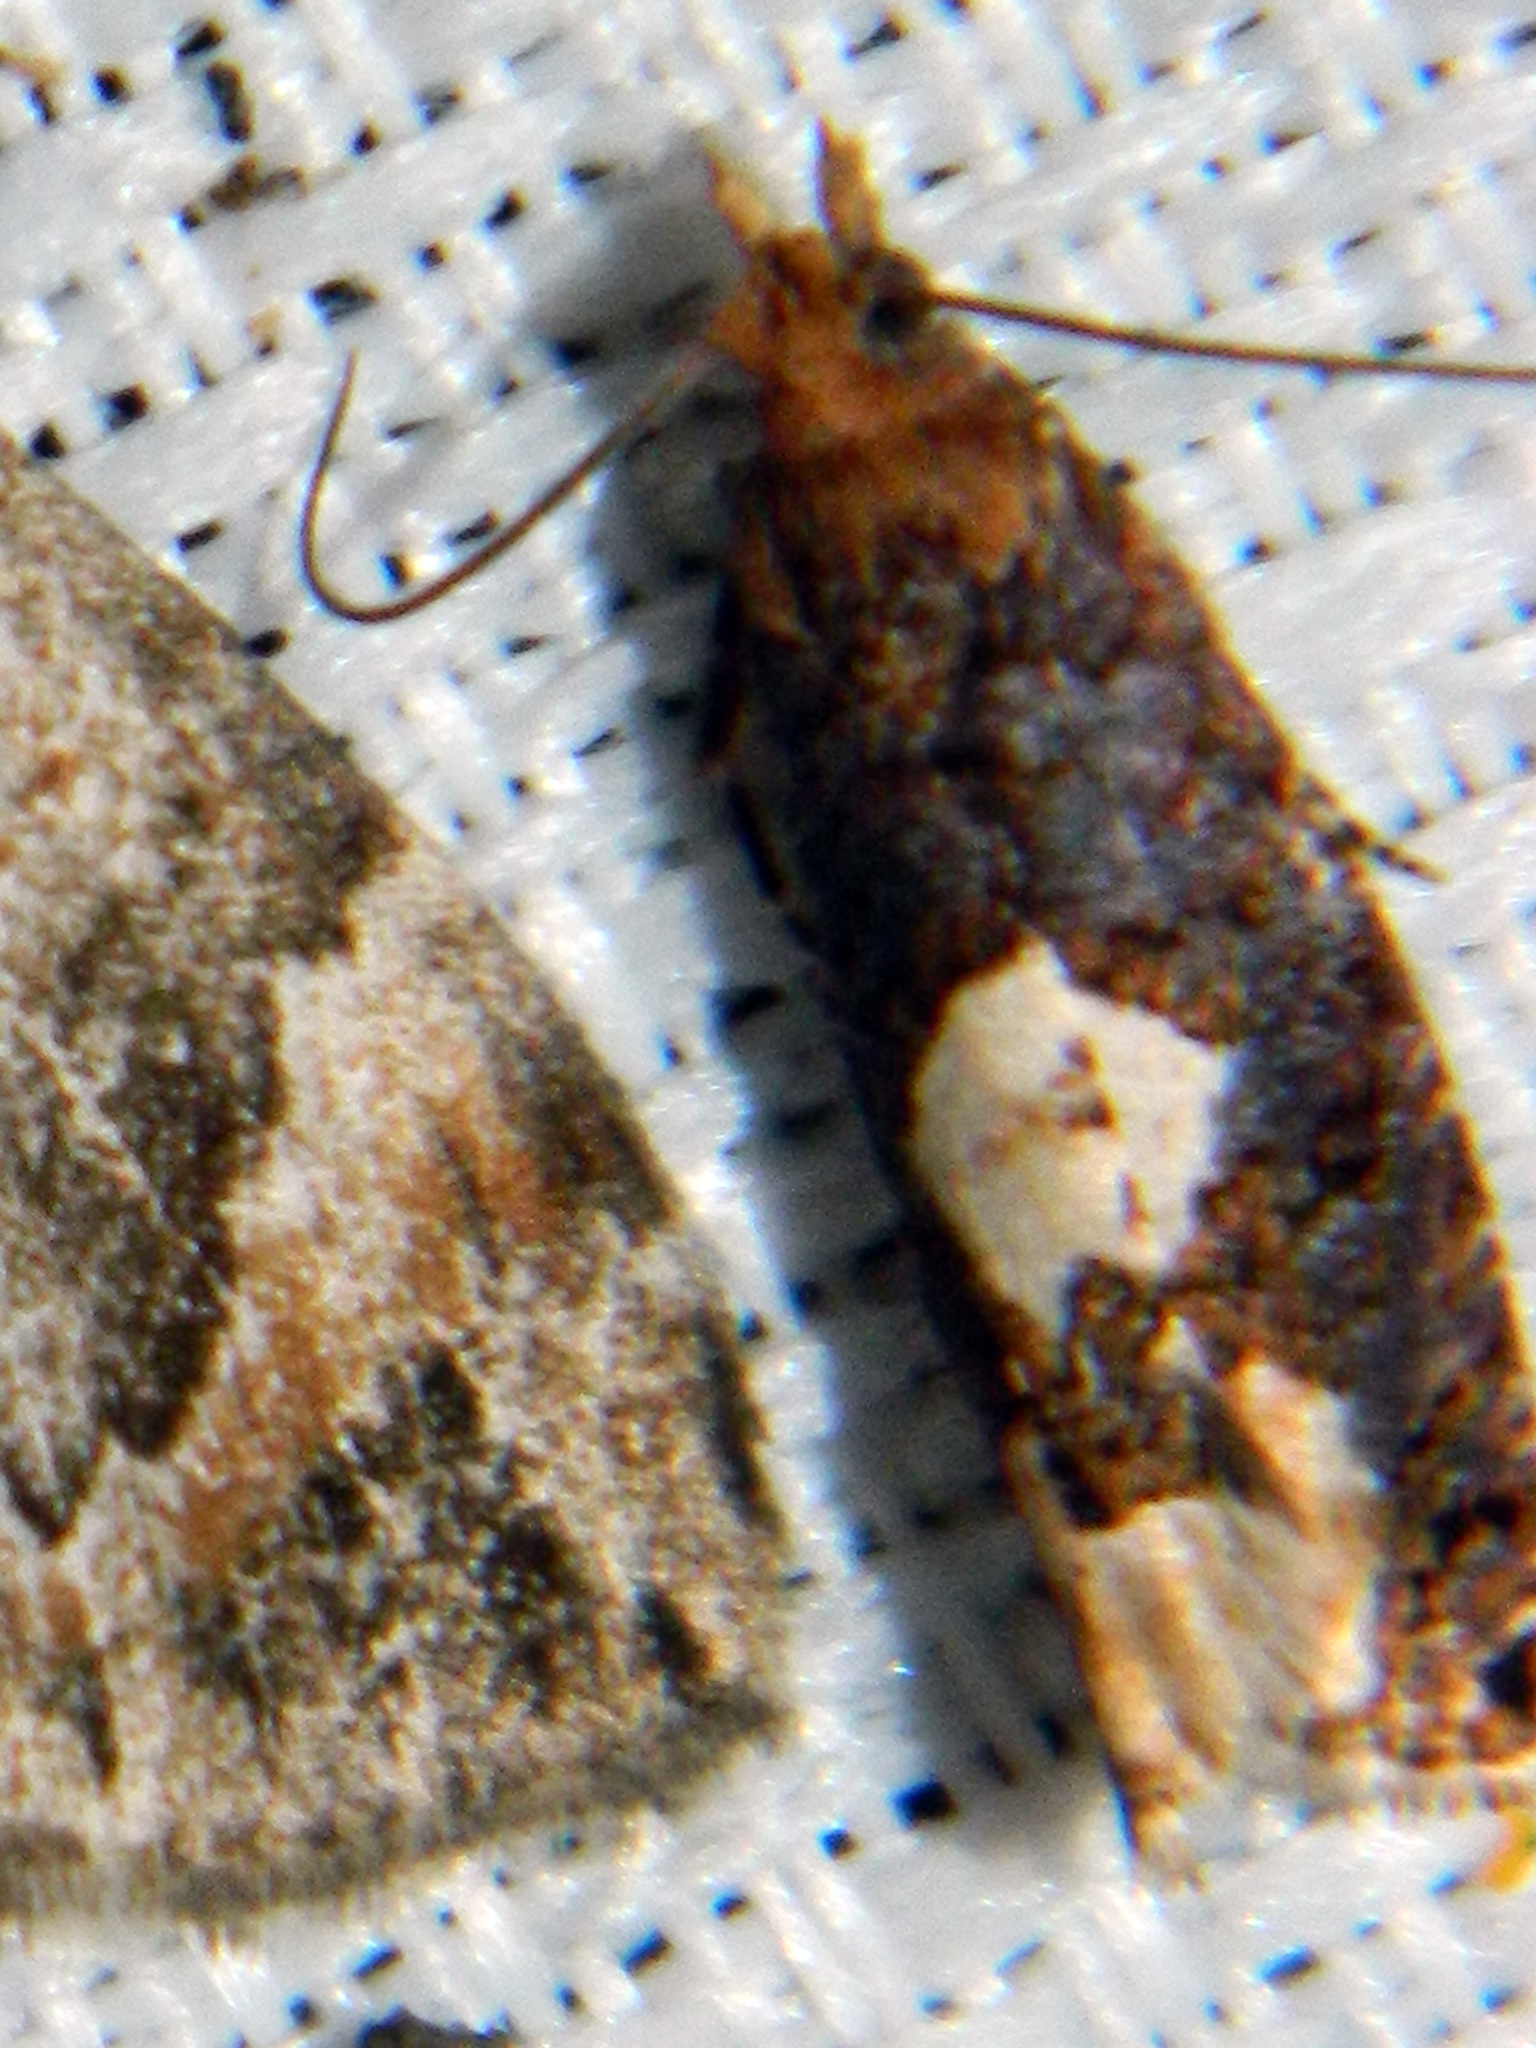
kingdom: Animalia
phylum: Arthropoda
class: Insecta
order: Lepidoptera
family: Tortricidae
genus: Epinotia
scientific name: Epinotia trigonella
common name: White-blotch bell
